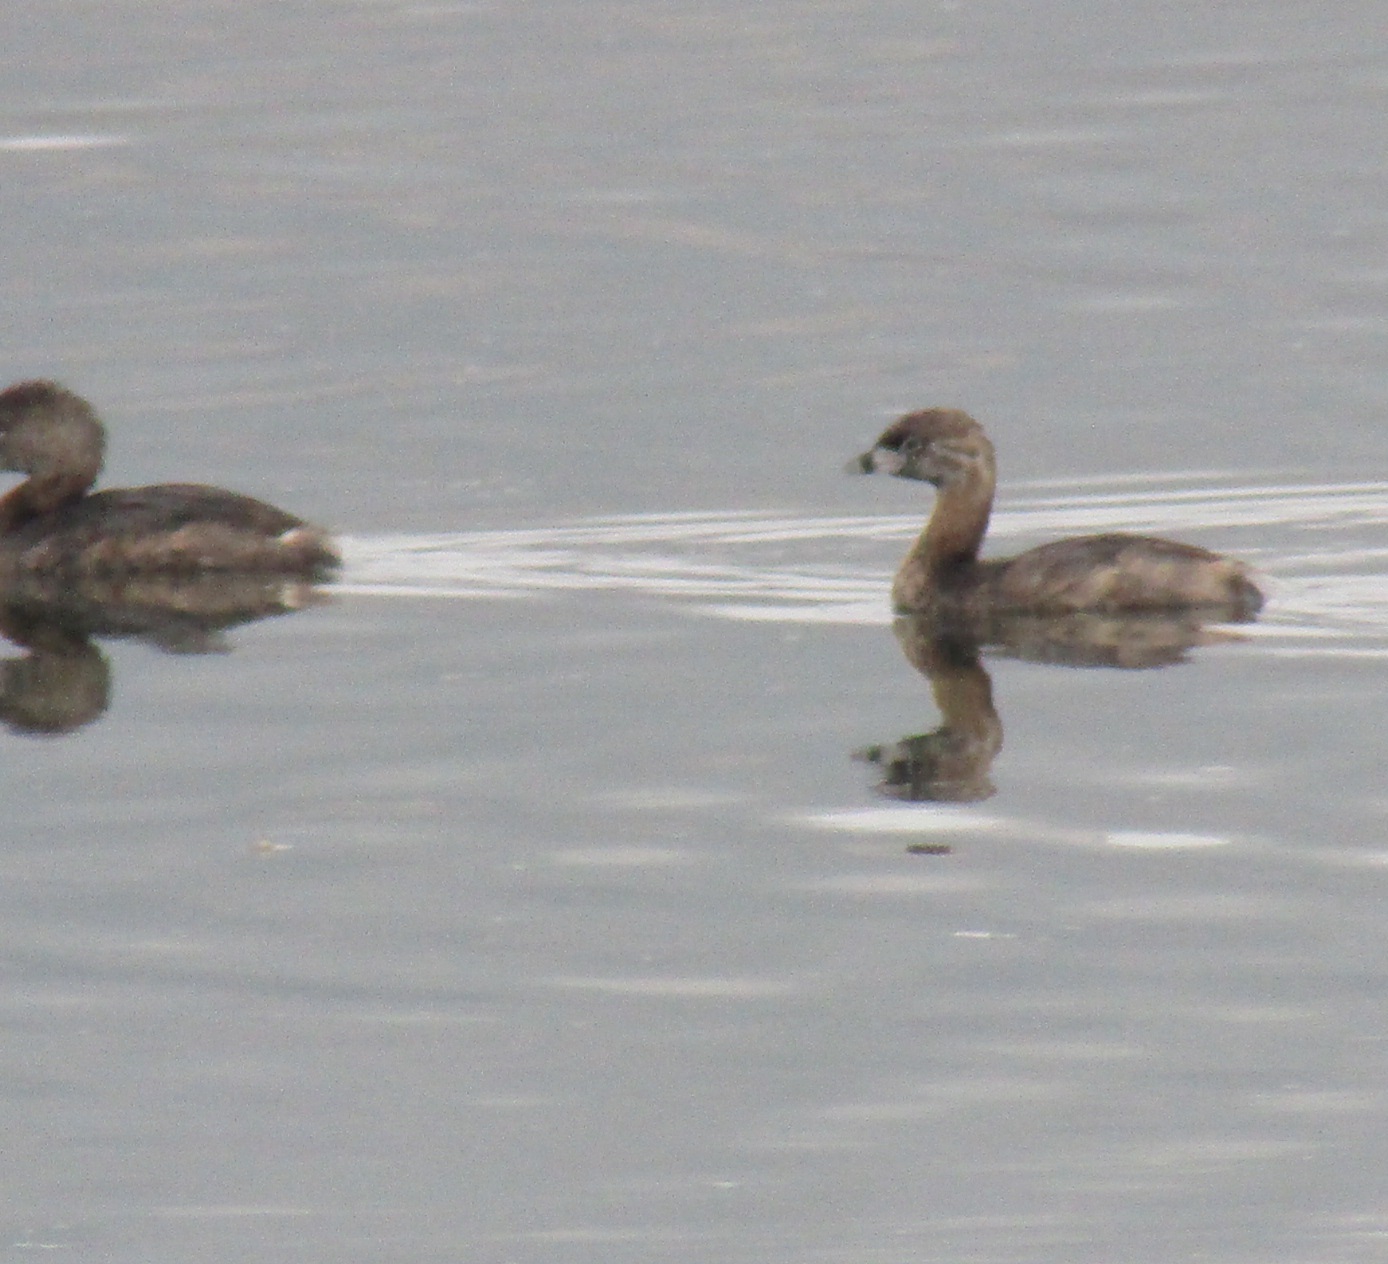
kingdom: Animalia
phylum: Chordata
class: Aves
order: Podicipediformes
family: Podicipedidae
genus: Podilymbus
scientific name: Podilymbus podiceps
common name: Pied-billed grebe
